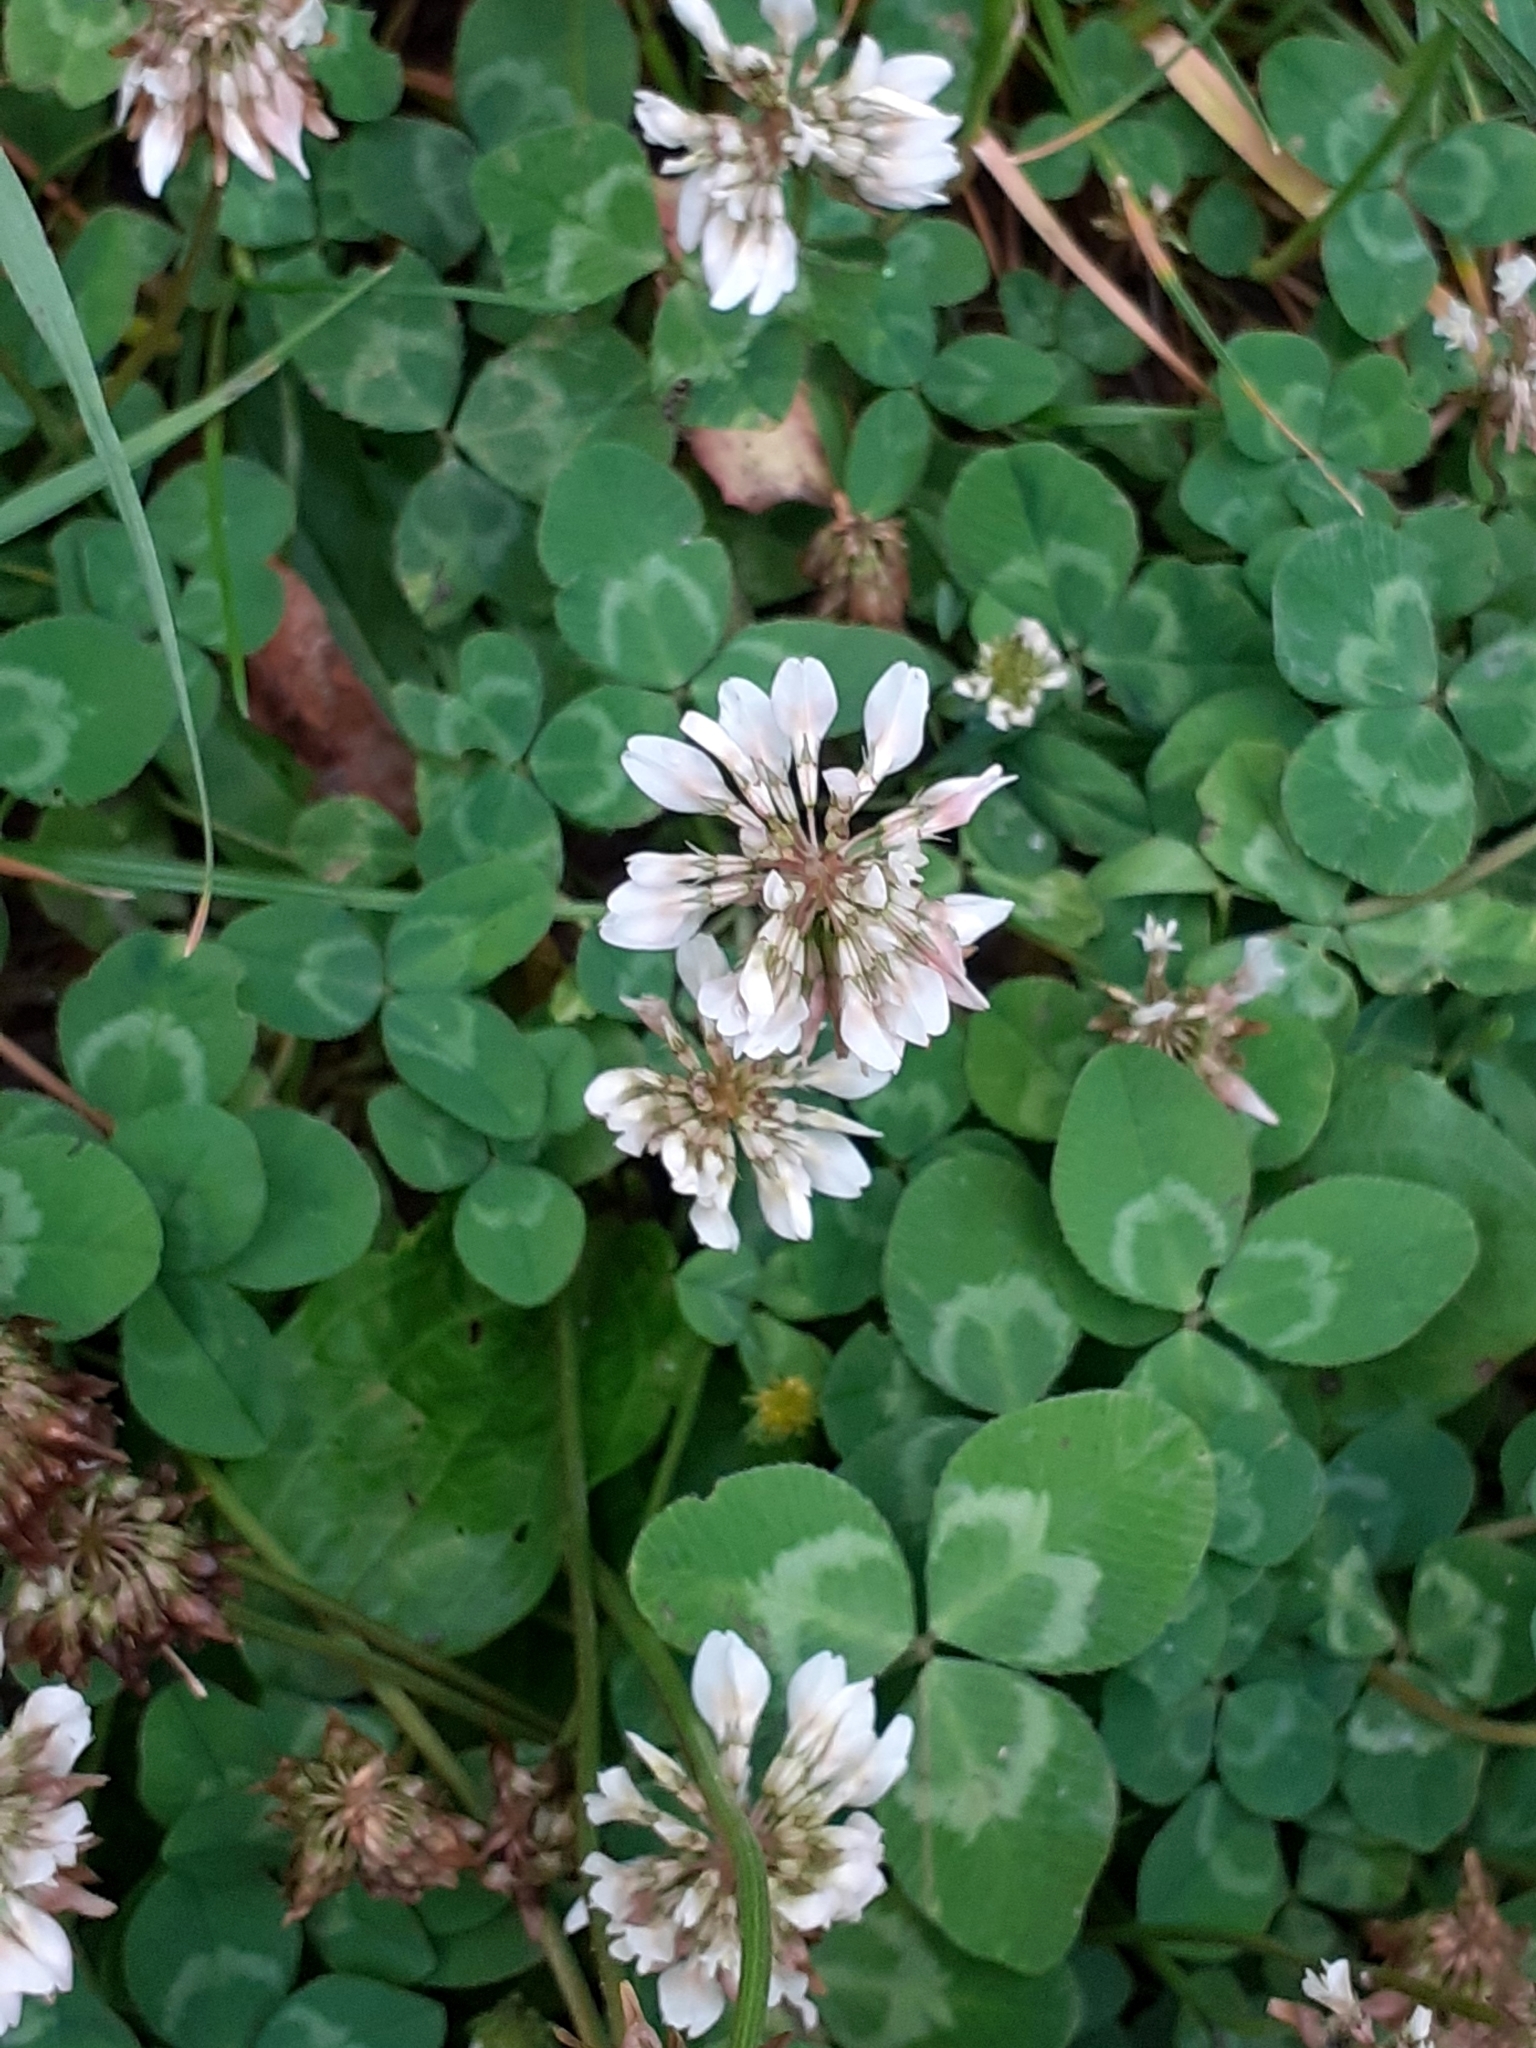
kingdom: Plantae
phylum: Tracheophyta
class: Magnoliopsida
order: Fabales
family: Fabaceae
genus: Trifolium
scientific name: Trifolium repens
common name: White clover
